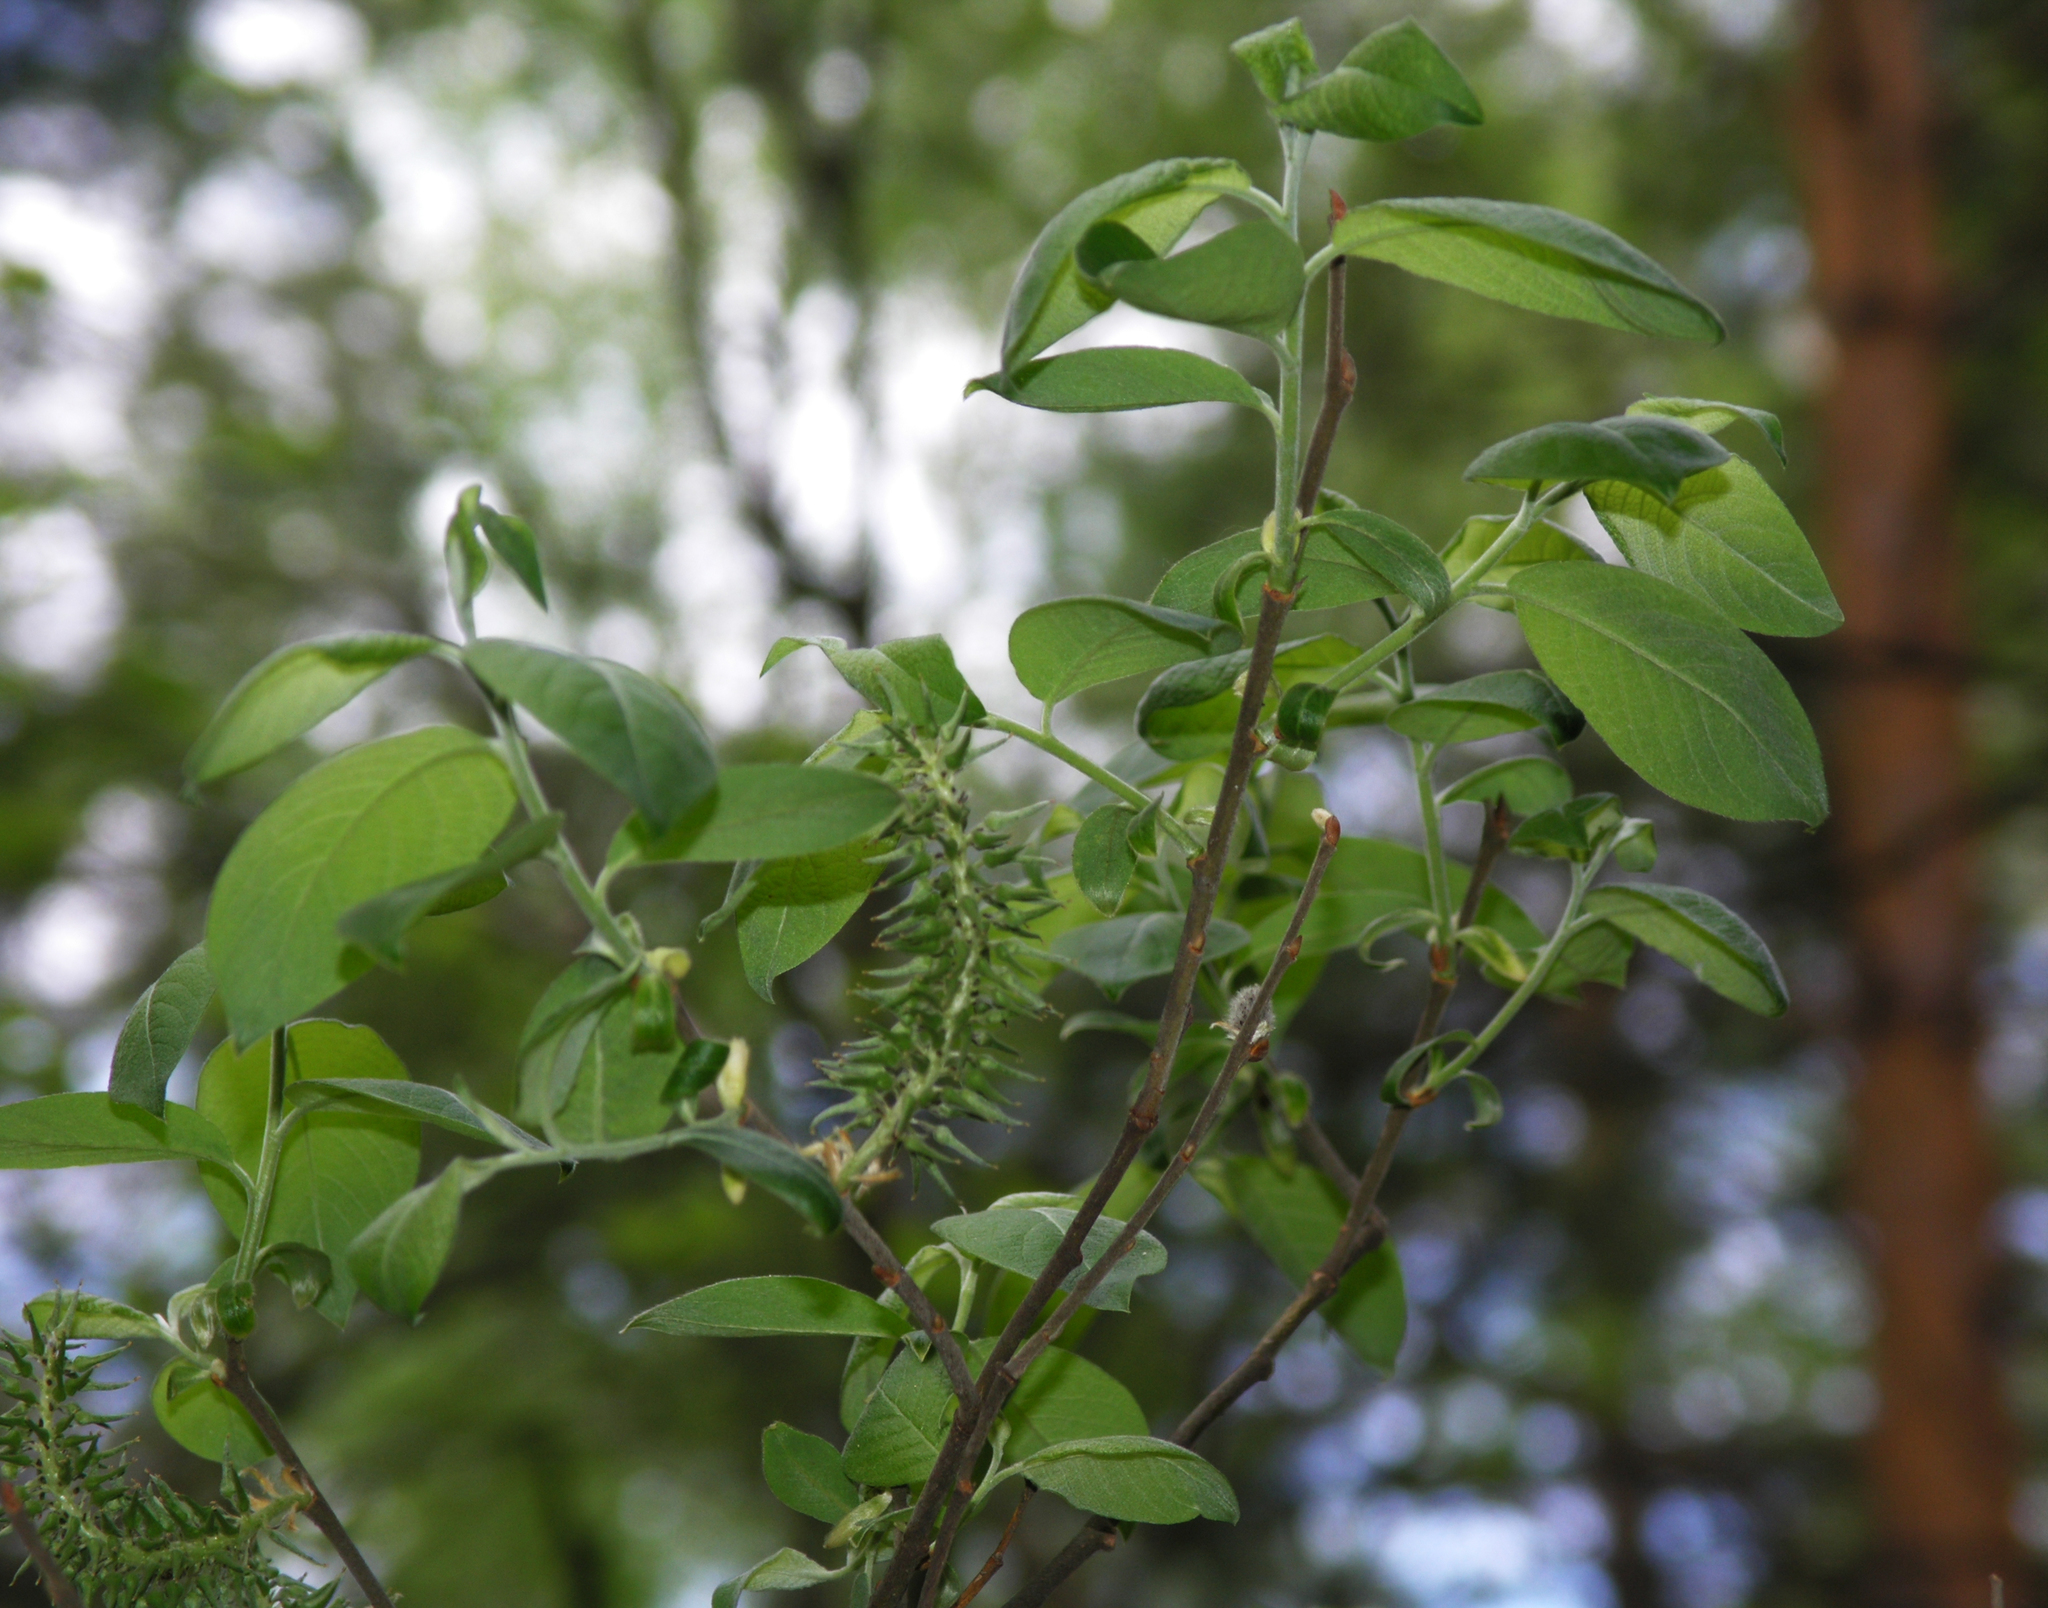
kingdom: Plantae
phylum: Tracheophyta
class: Magnoliopsida
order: Malpighiales
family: Salicaceae
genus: Salix
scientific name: Salix caprea
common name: Goat willow
